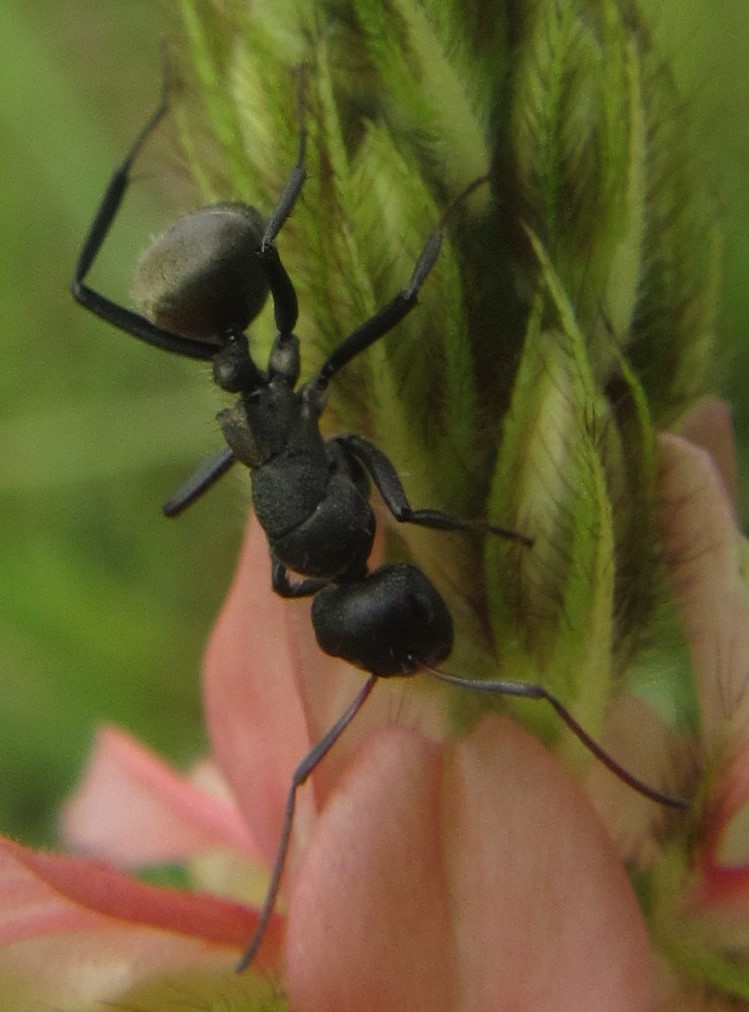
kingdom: Animalia
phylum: Arthropoda
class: Insecta
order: Hymenoptera
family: Formicidae
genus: Camponotus
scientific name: Camponotus sericeus
